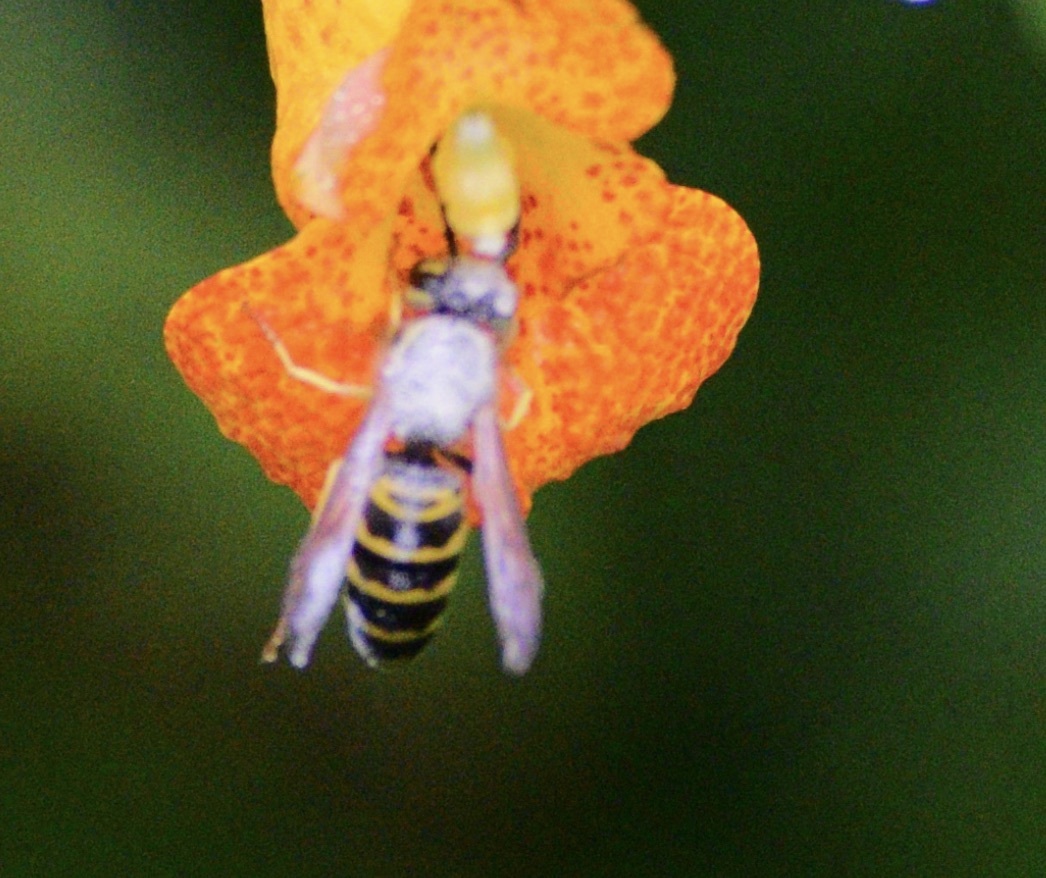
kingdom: Animalia
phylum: Arthropoda
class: Insecta
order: Hymenoptera
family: Vespidae
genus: Vespula
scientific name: Vespula maculifrons
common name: Eastern yellowjacket
